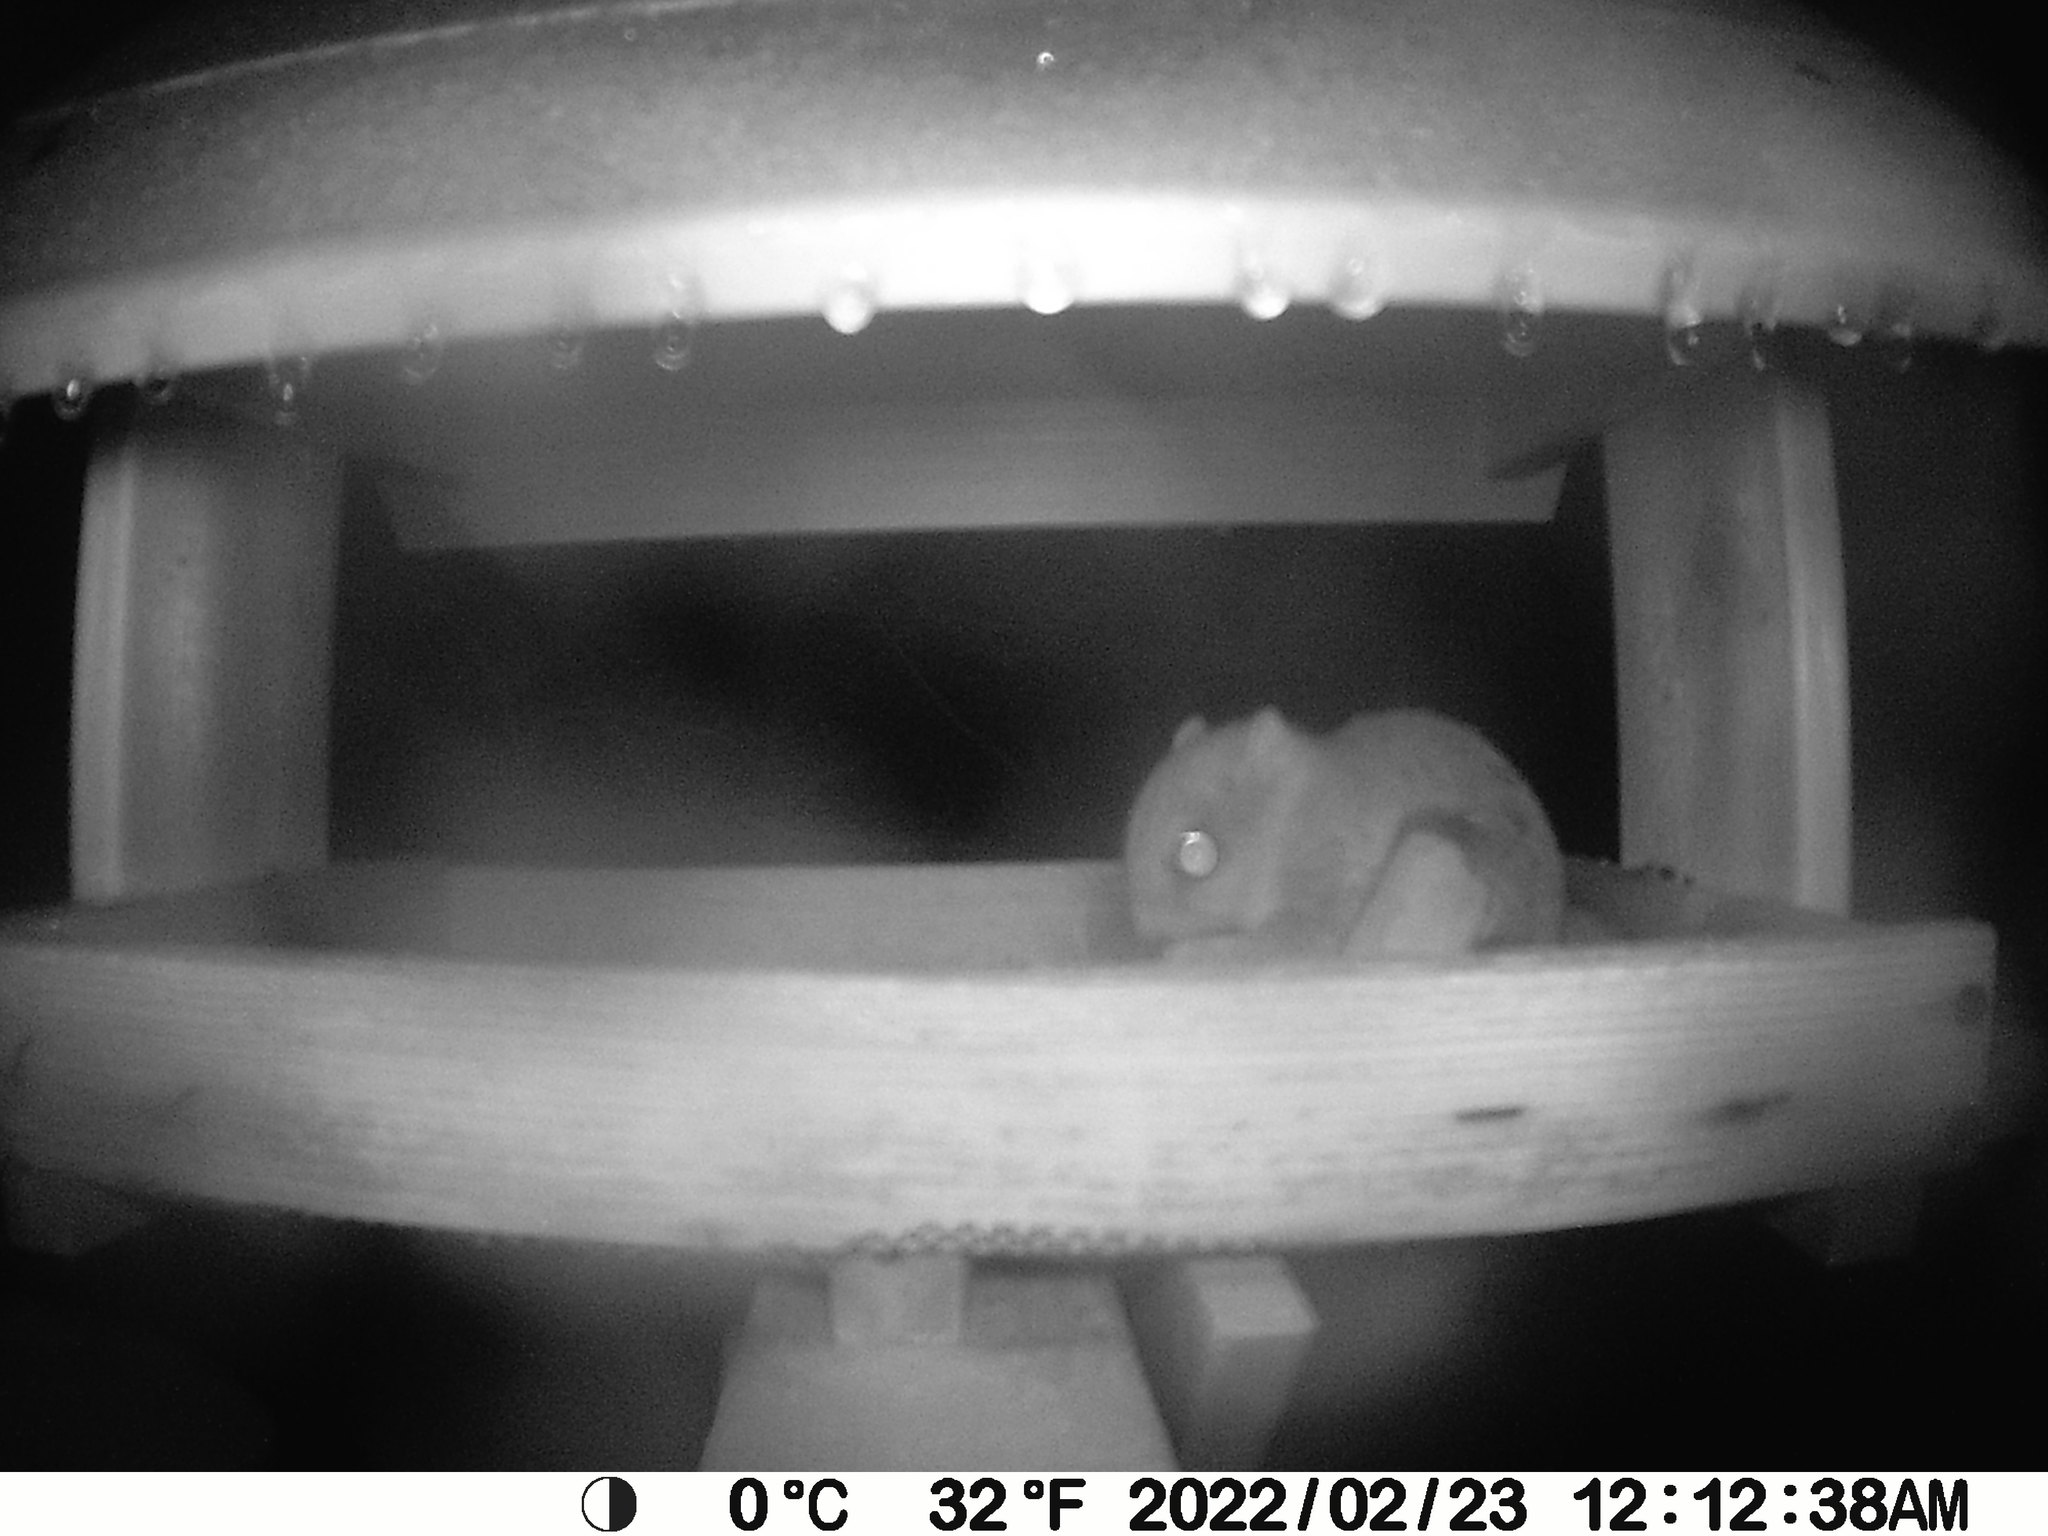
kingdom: Animalia
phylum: Chordata
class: Mammalia
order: Rodentia
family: Sciuridae
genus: Glaucomys
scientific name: Glaucomys sabrinus
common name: Northern flying squirrel
